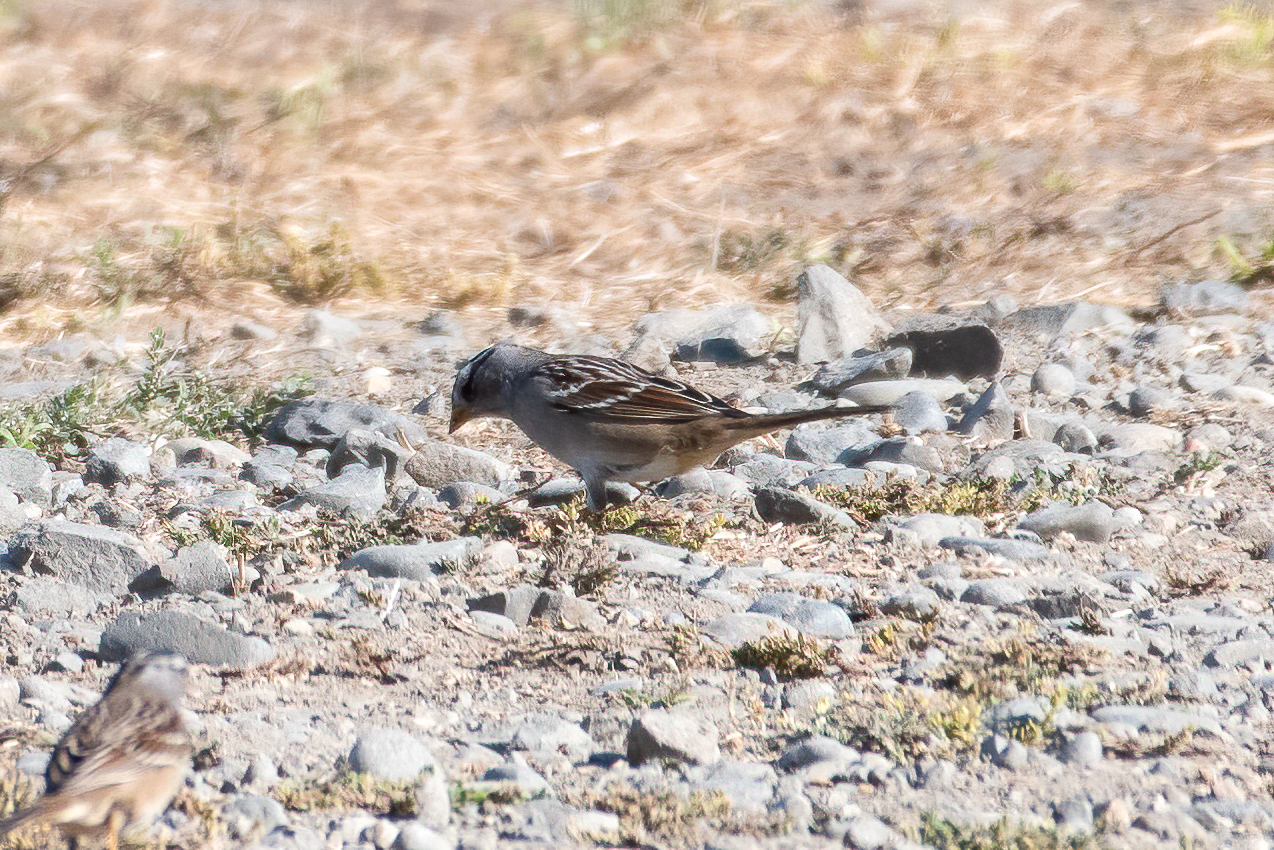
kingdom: Animalia
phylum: Chordata
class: Aves
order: Passeriformes
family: Passerellidae
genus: Zonotrichia
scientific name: Zonotrichia leucophrys
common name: White-crowned sparrow
